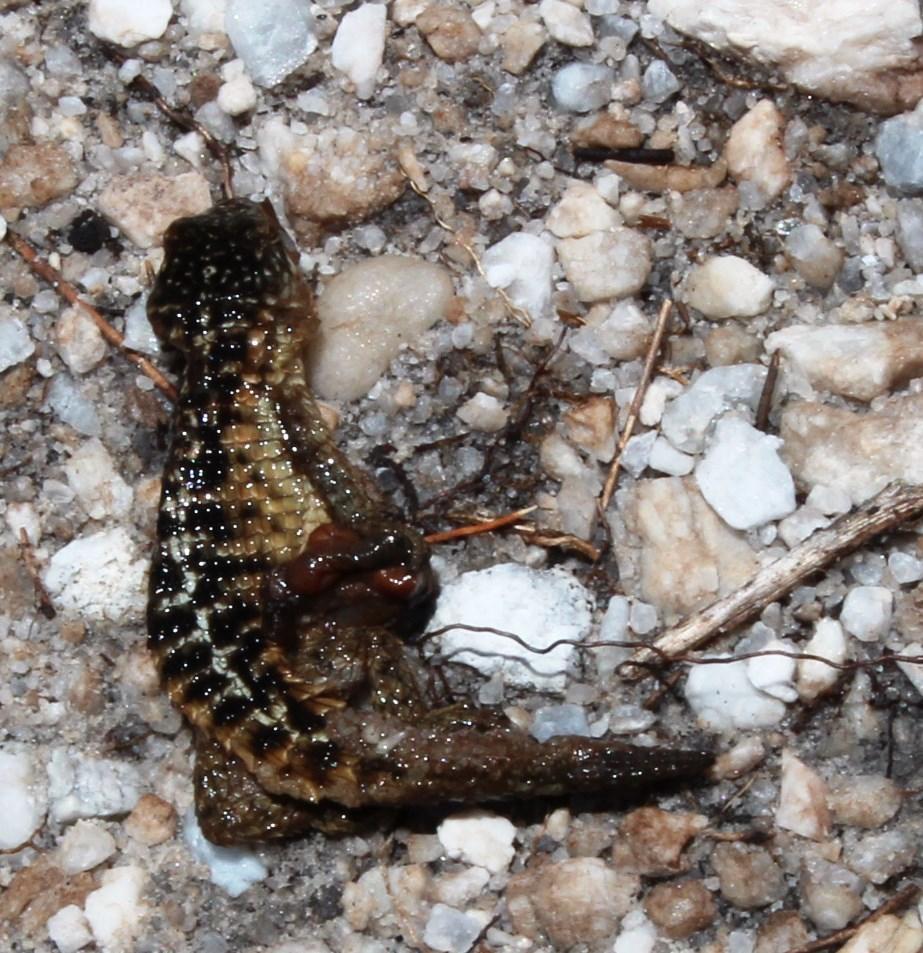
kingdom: Animalia
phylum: Chordata
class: Squamata
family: Cordylidae
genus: Cordylus
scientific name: Cordylus cordylus
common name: Cape girdled lizard
